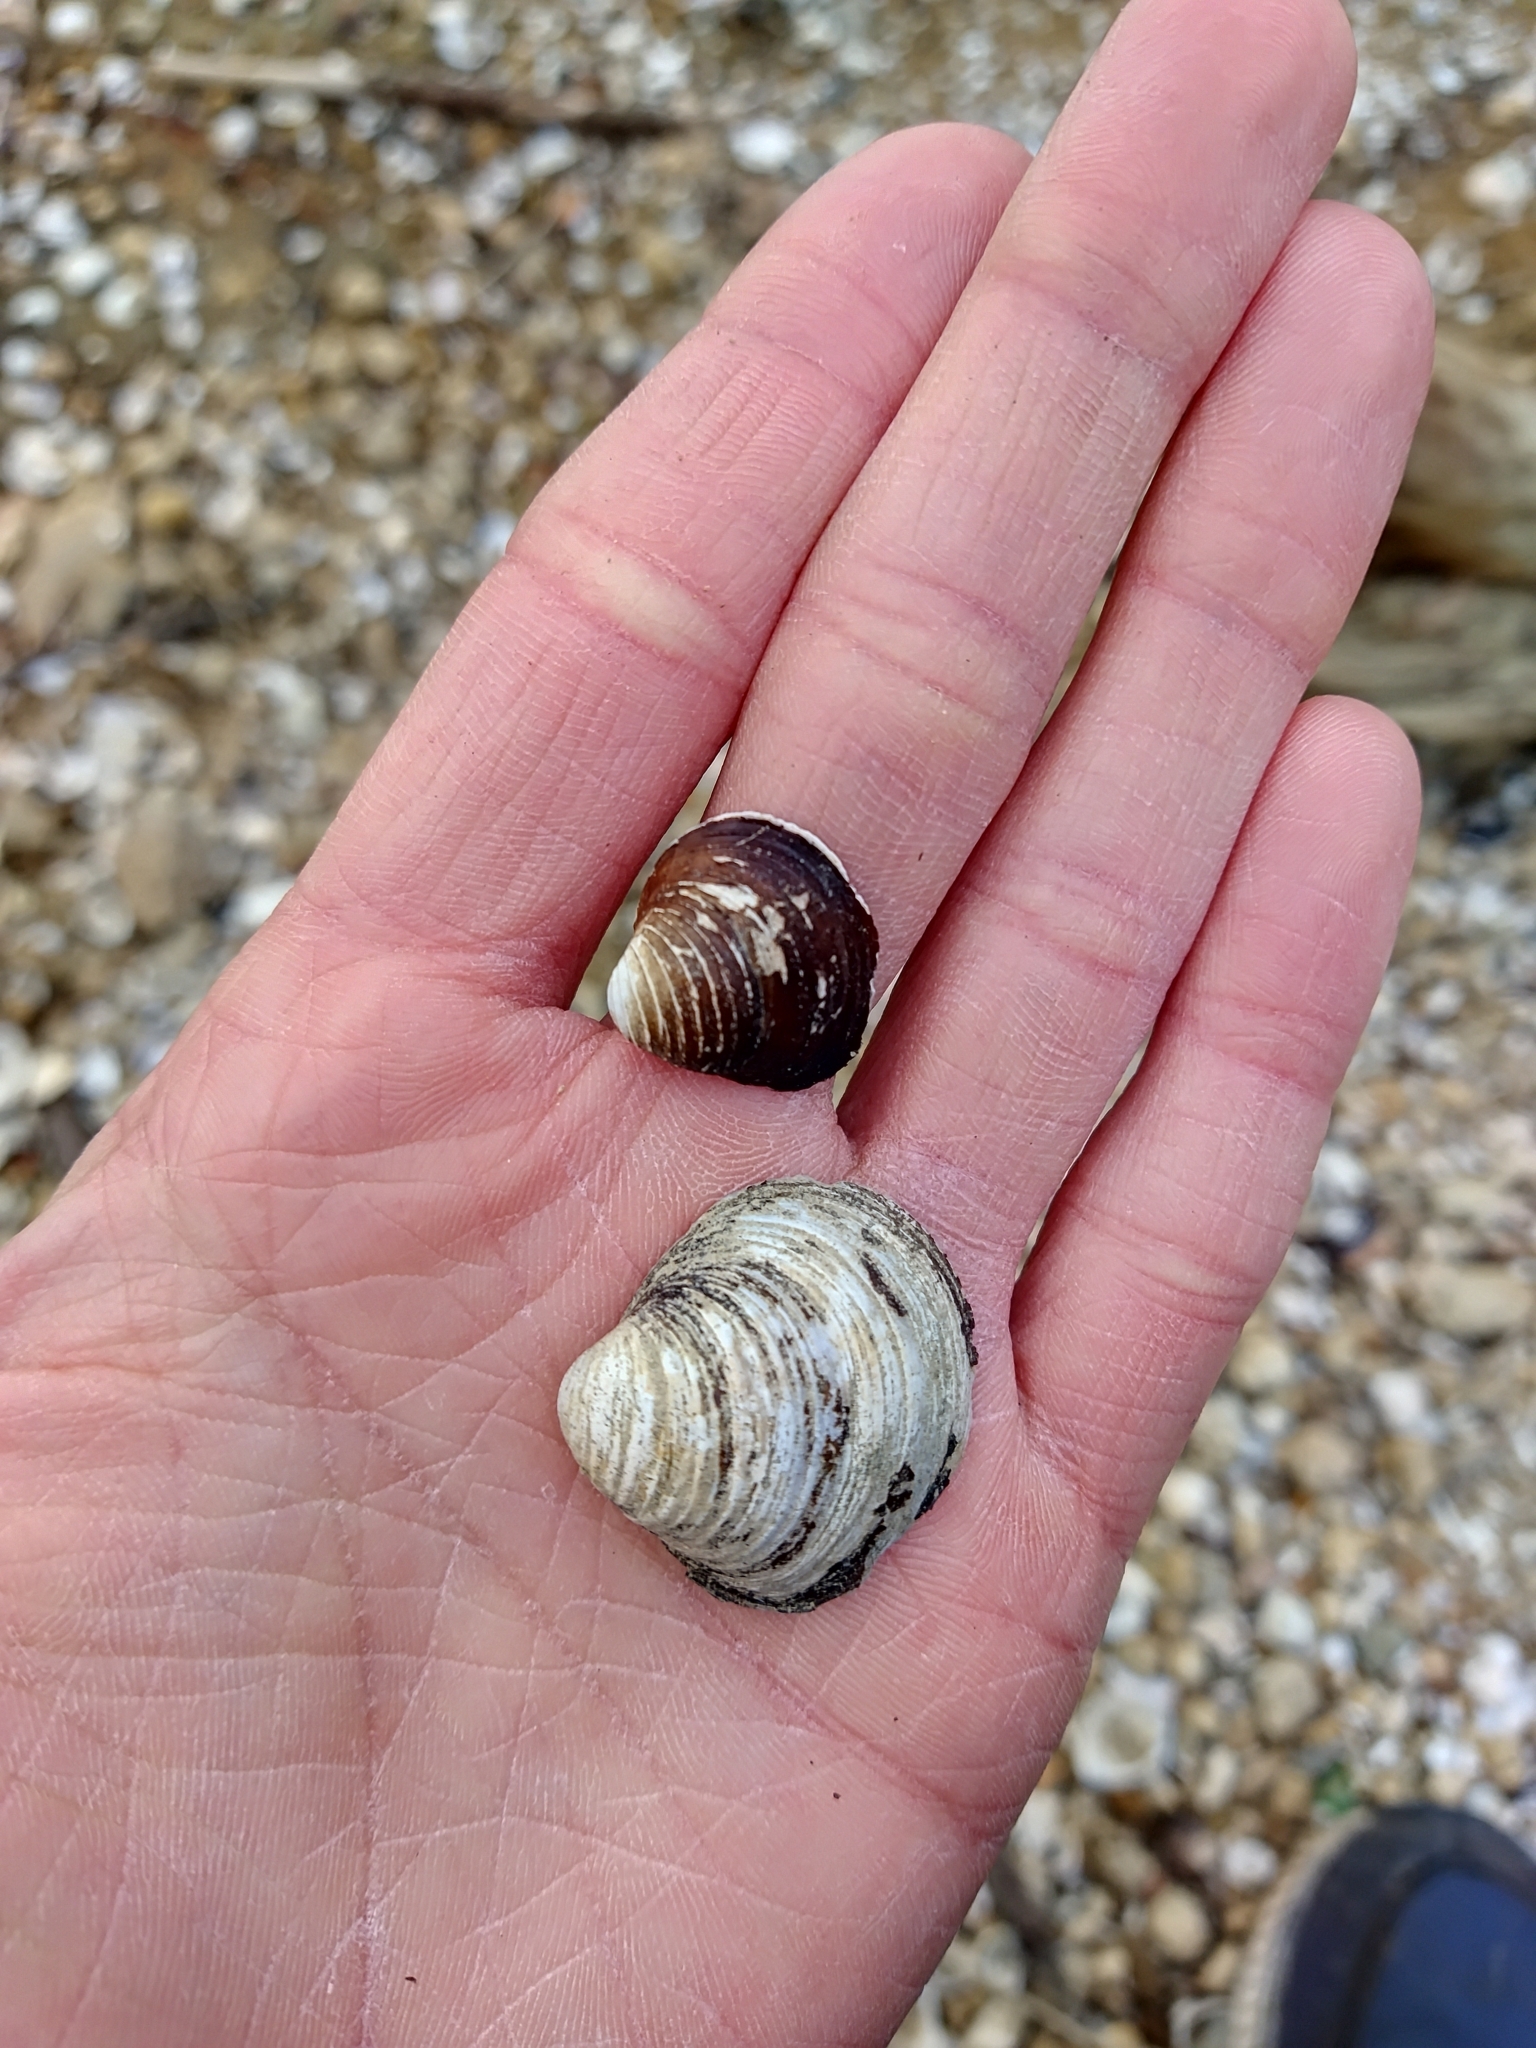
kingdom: Animalia
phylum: Mollusca
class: Bivalvia
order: Venerida
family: Cyrenidae
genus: Corbicula
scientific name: Corbicula fluminea
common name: Asian clam
